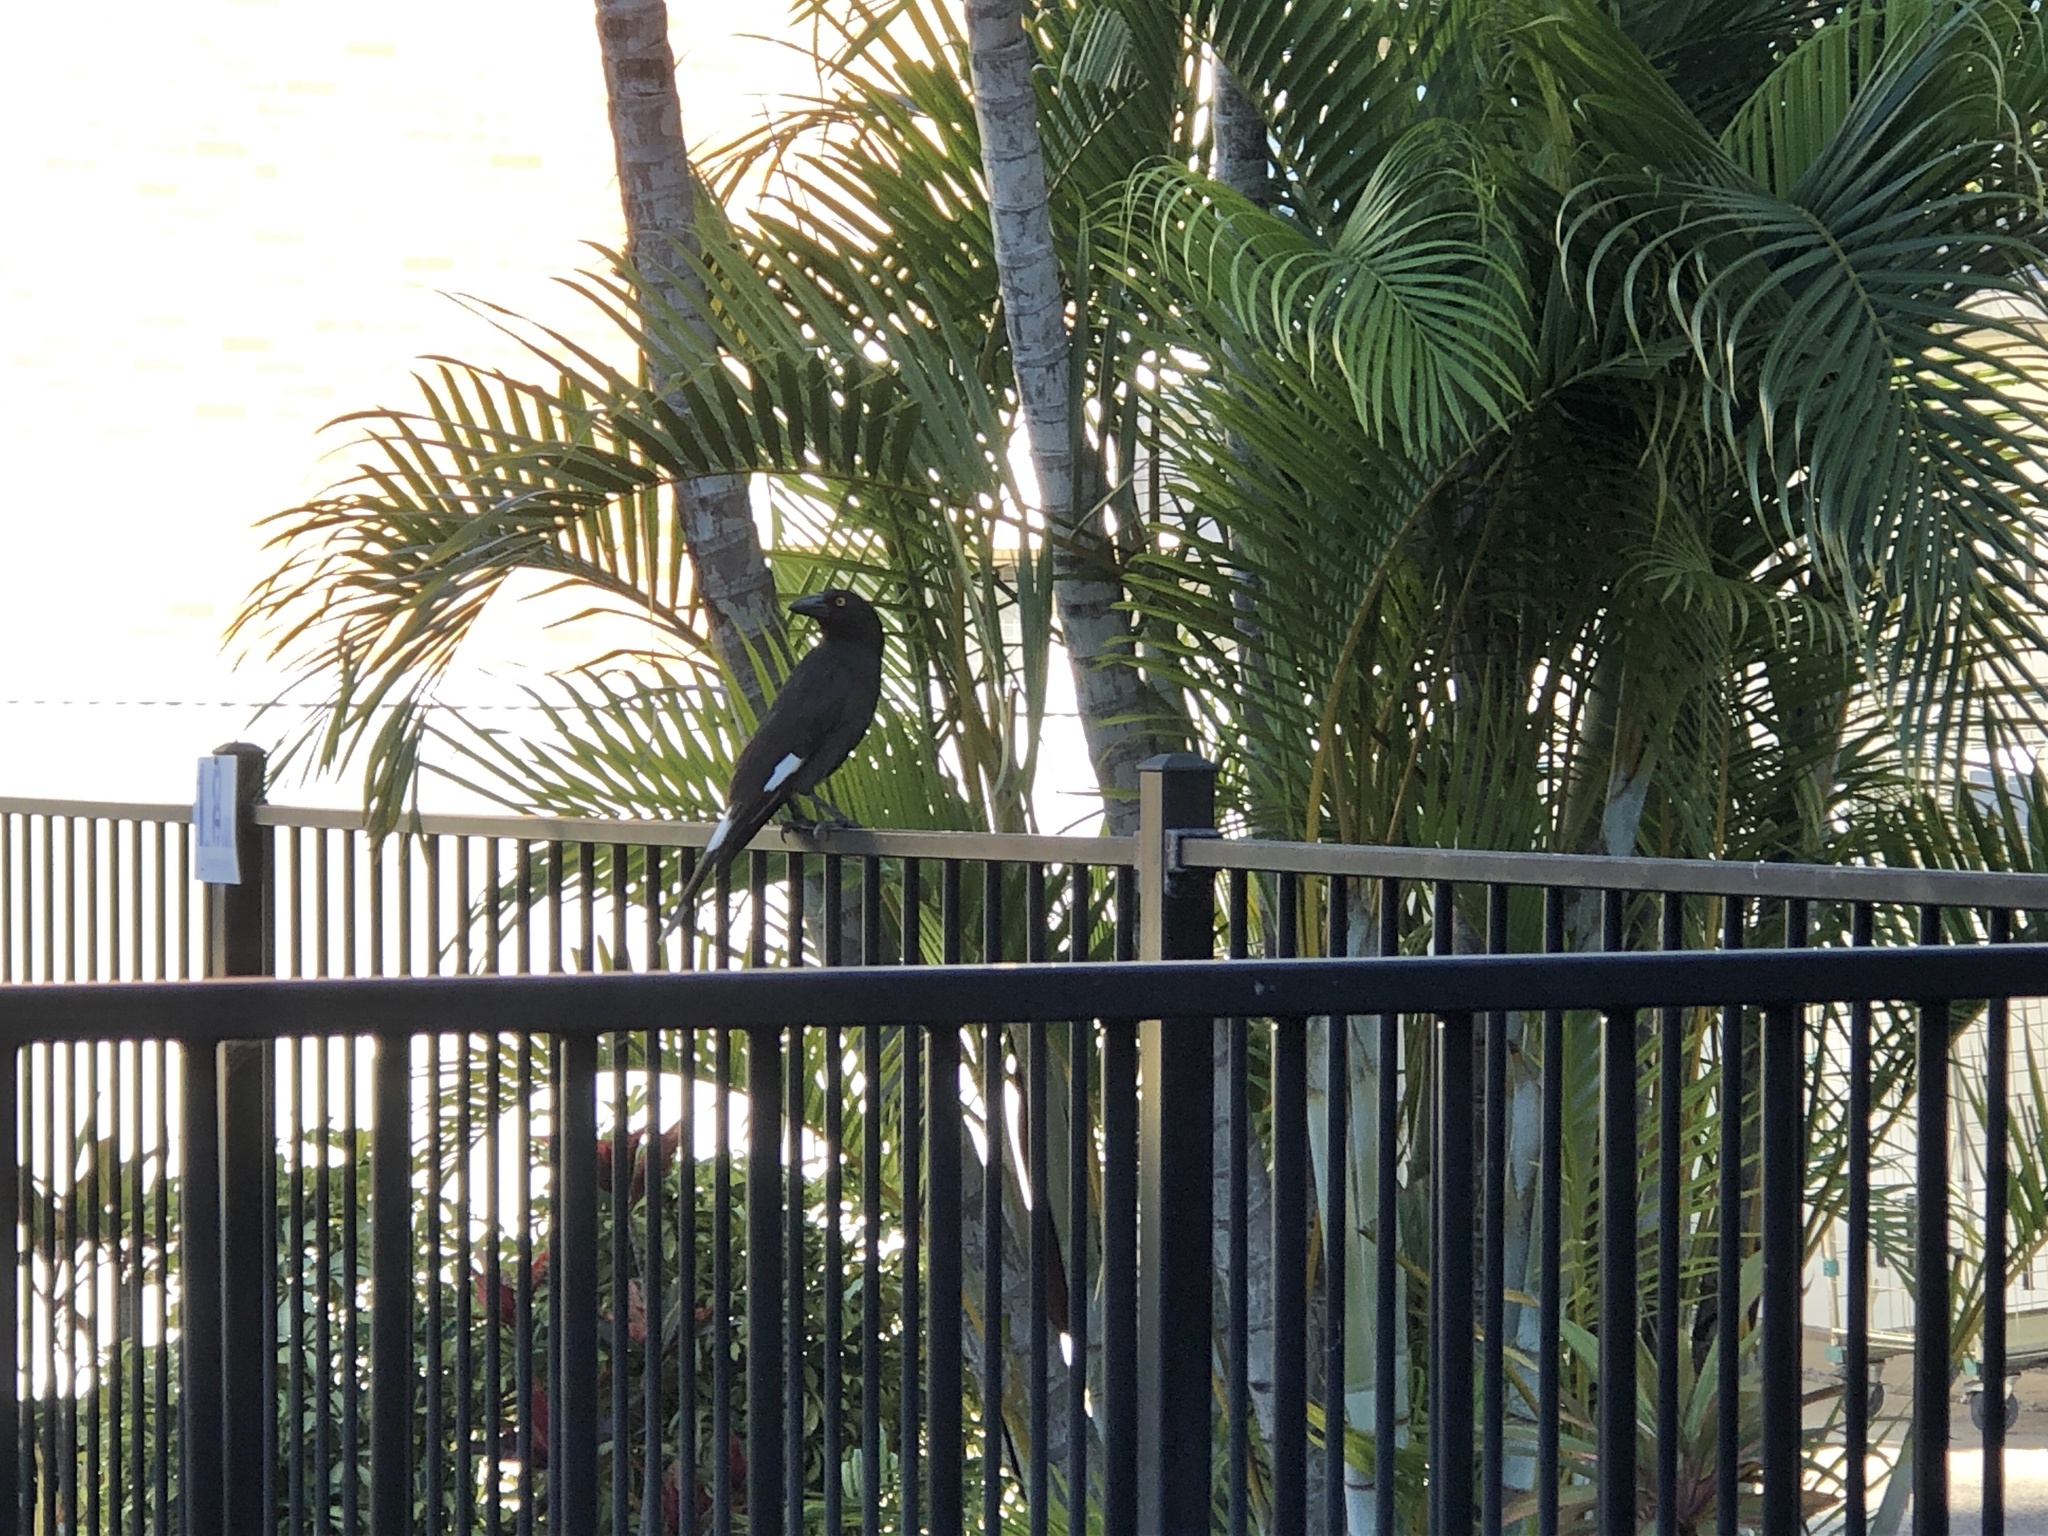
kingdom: Animalia
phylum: Chordata
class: Aves
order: Passeriformes
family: Cracticidae
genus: Strepera
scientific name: Strepera graculina
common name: Pied currawong
